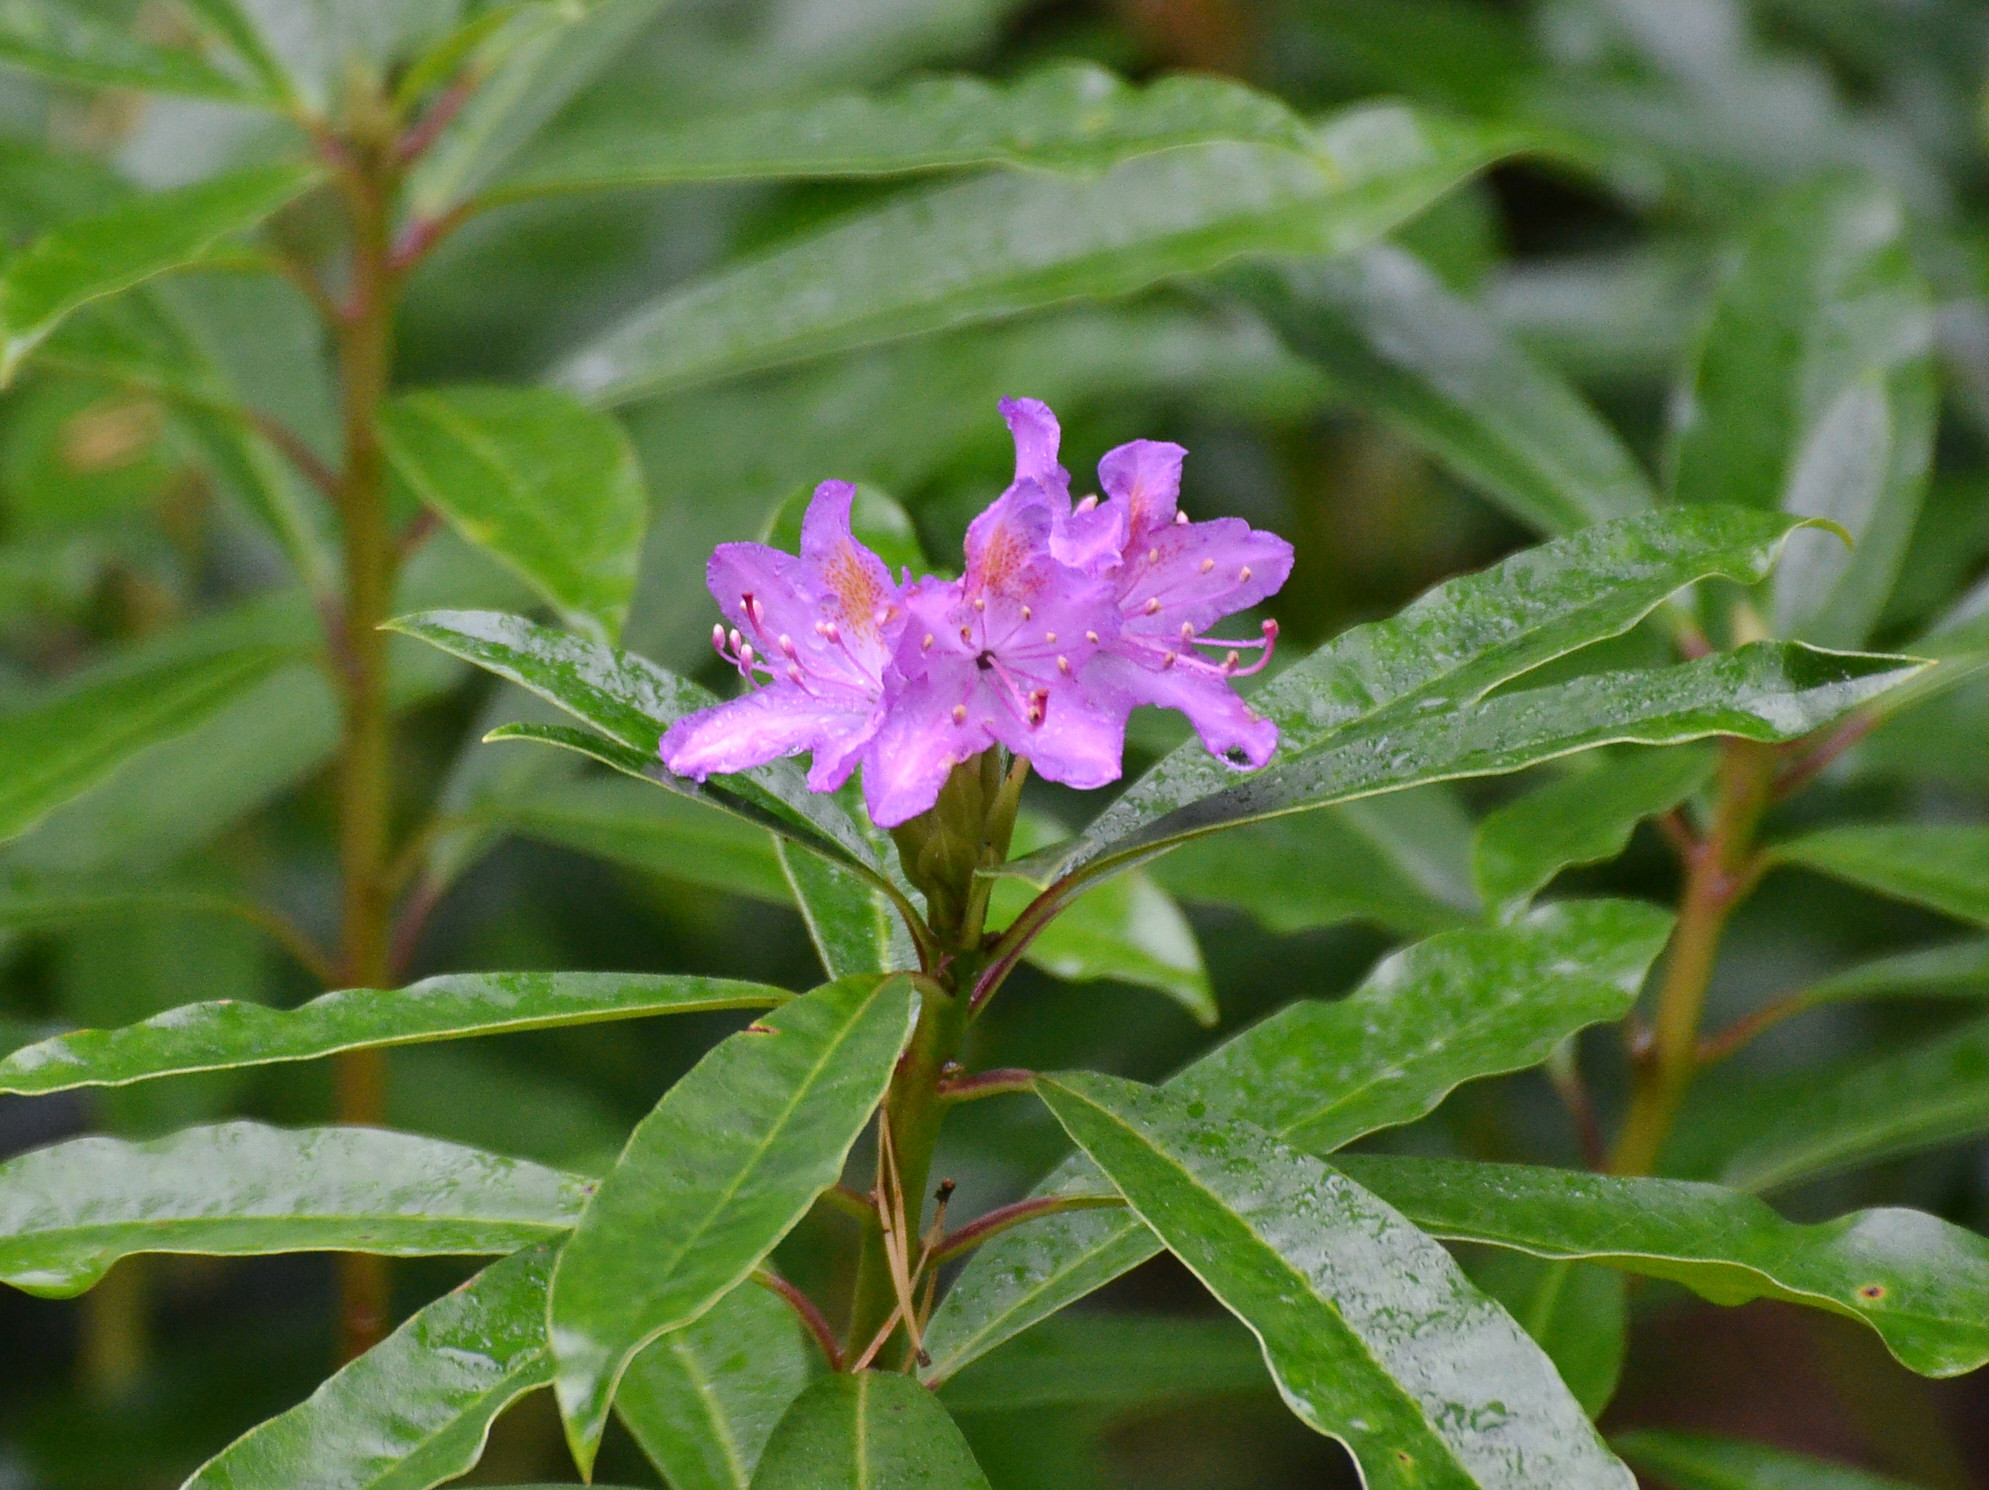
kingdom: Plantae
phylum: Tracheophyta
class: Magnoliopsida
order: Ericales
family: Ericaceae
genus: Rhododendron
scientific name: Rhododendron ponticum
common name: Rhododendron
